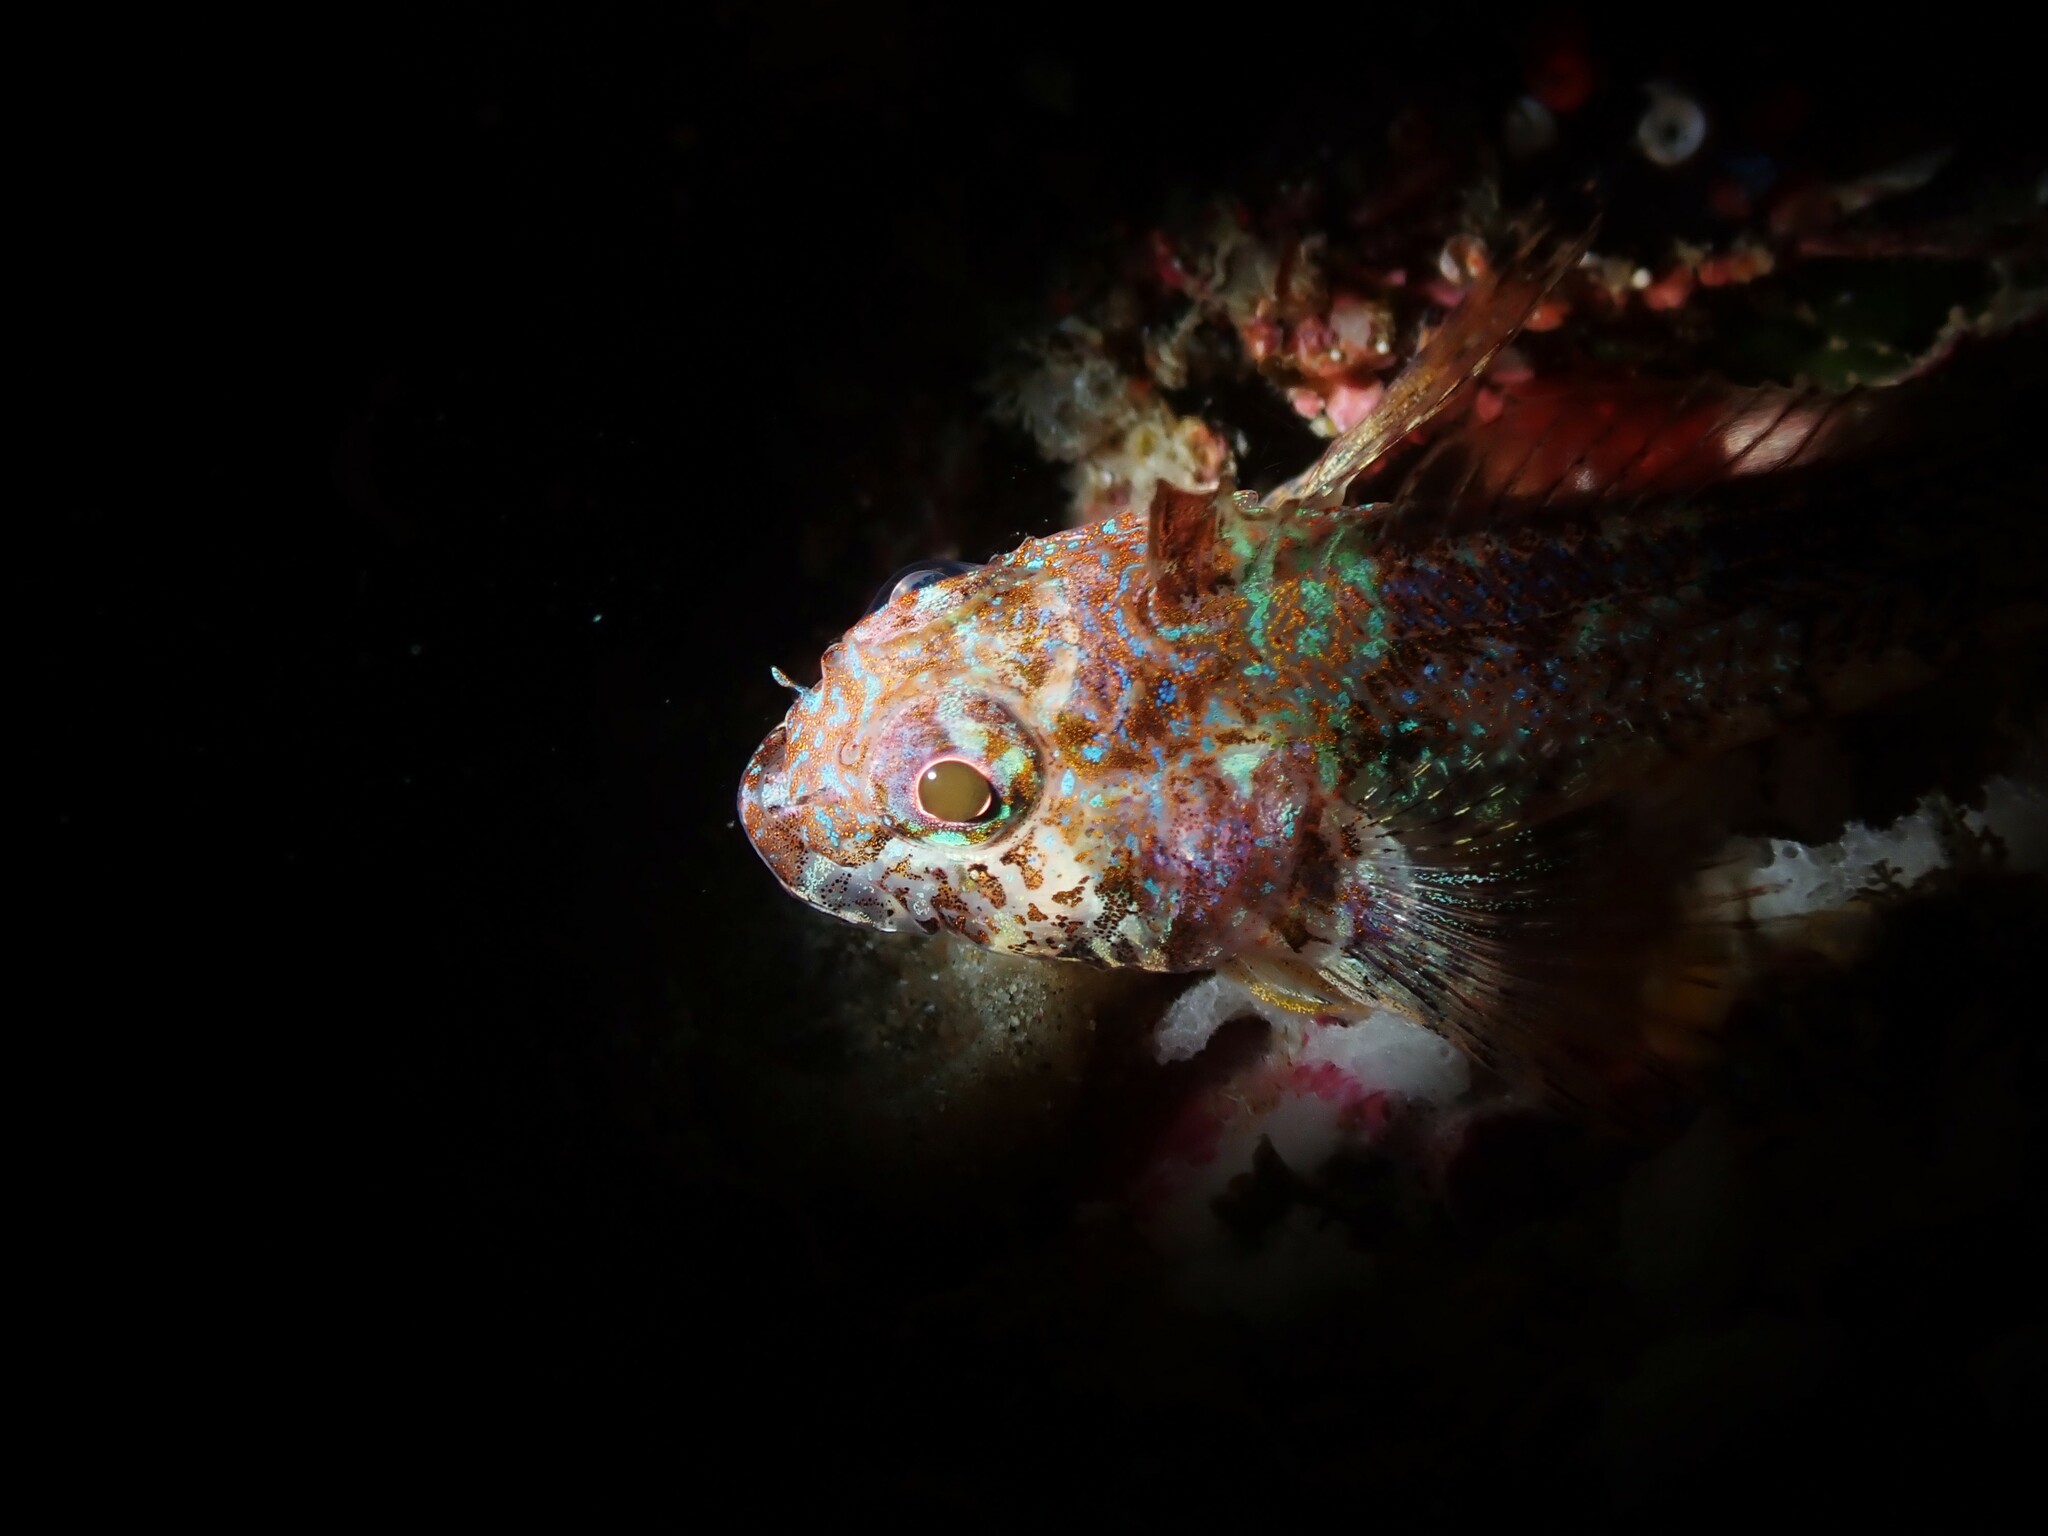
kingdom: Animalia
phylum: Chordata
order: Perciformes
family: Tripterygiidae
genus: Cryptichthys
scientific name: Cryptichthys jojettae
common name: Cryptic triplefin
